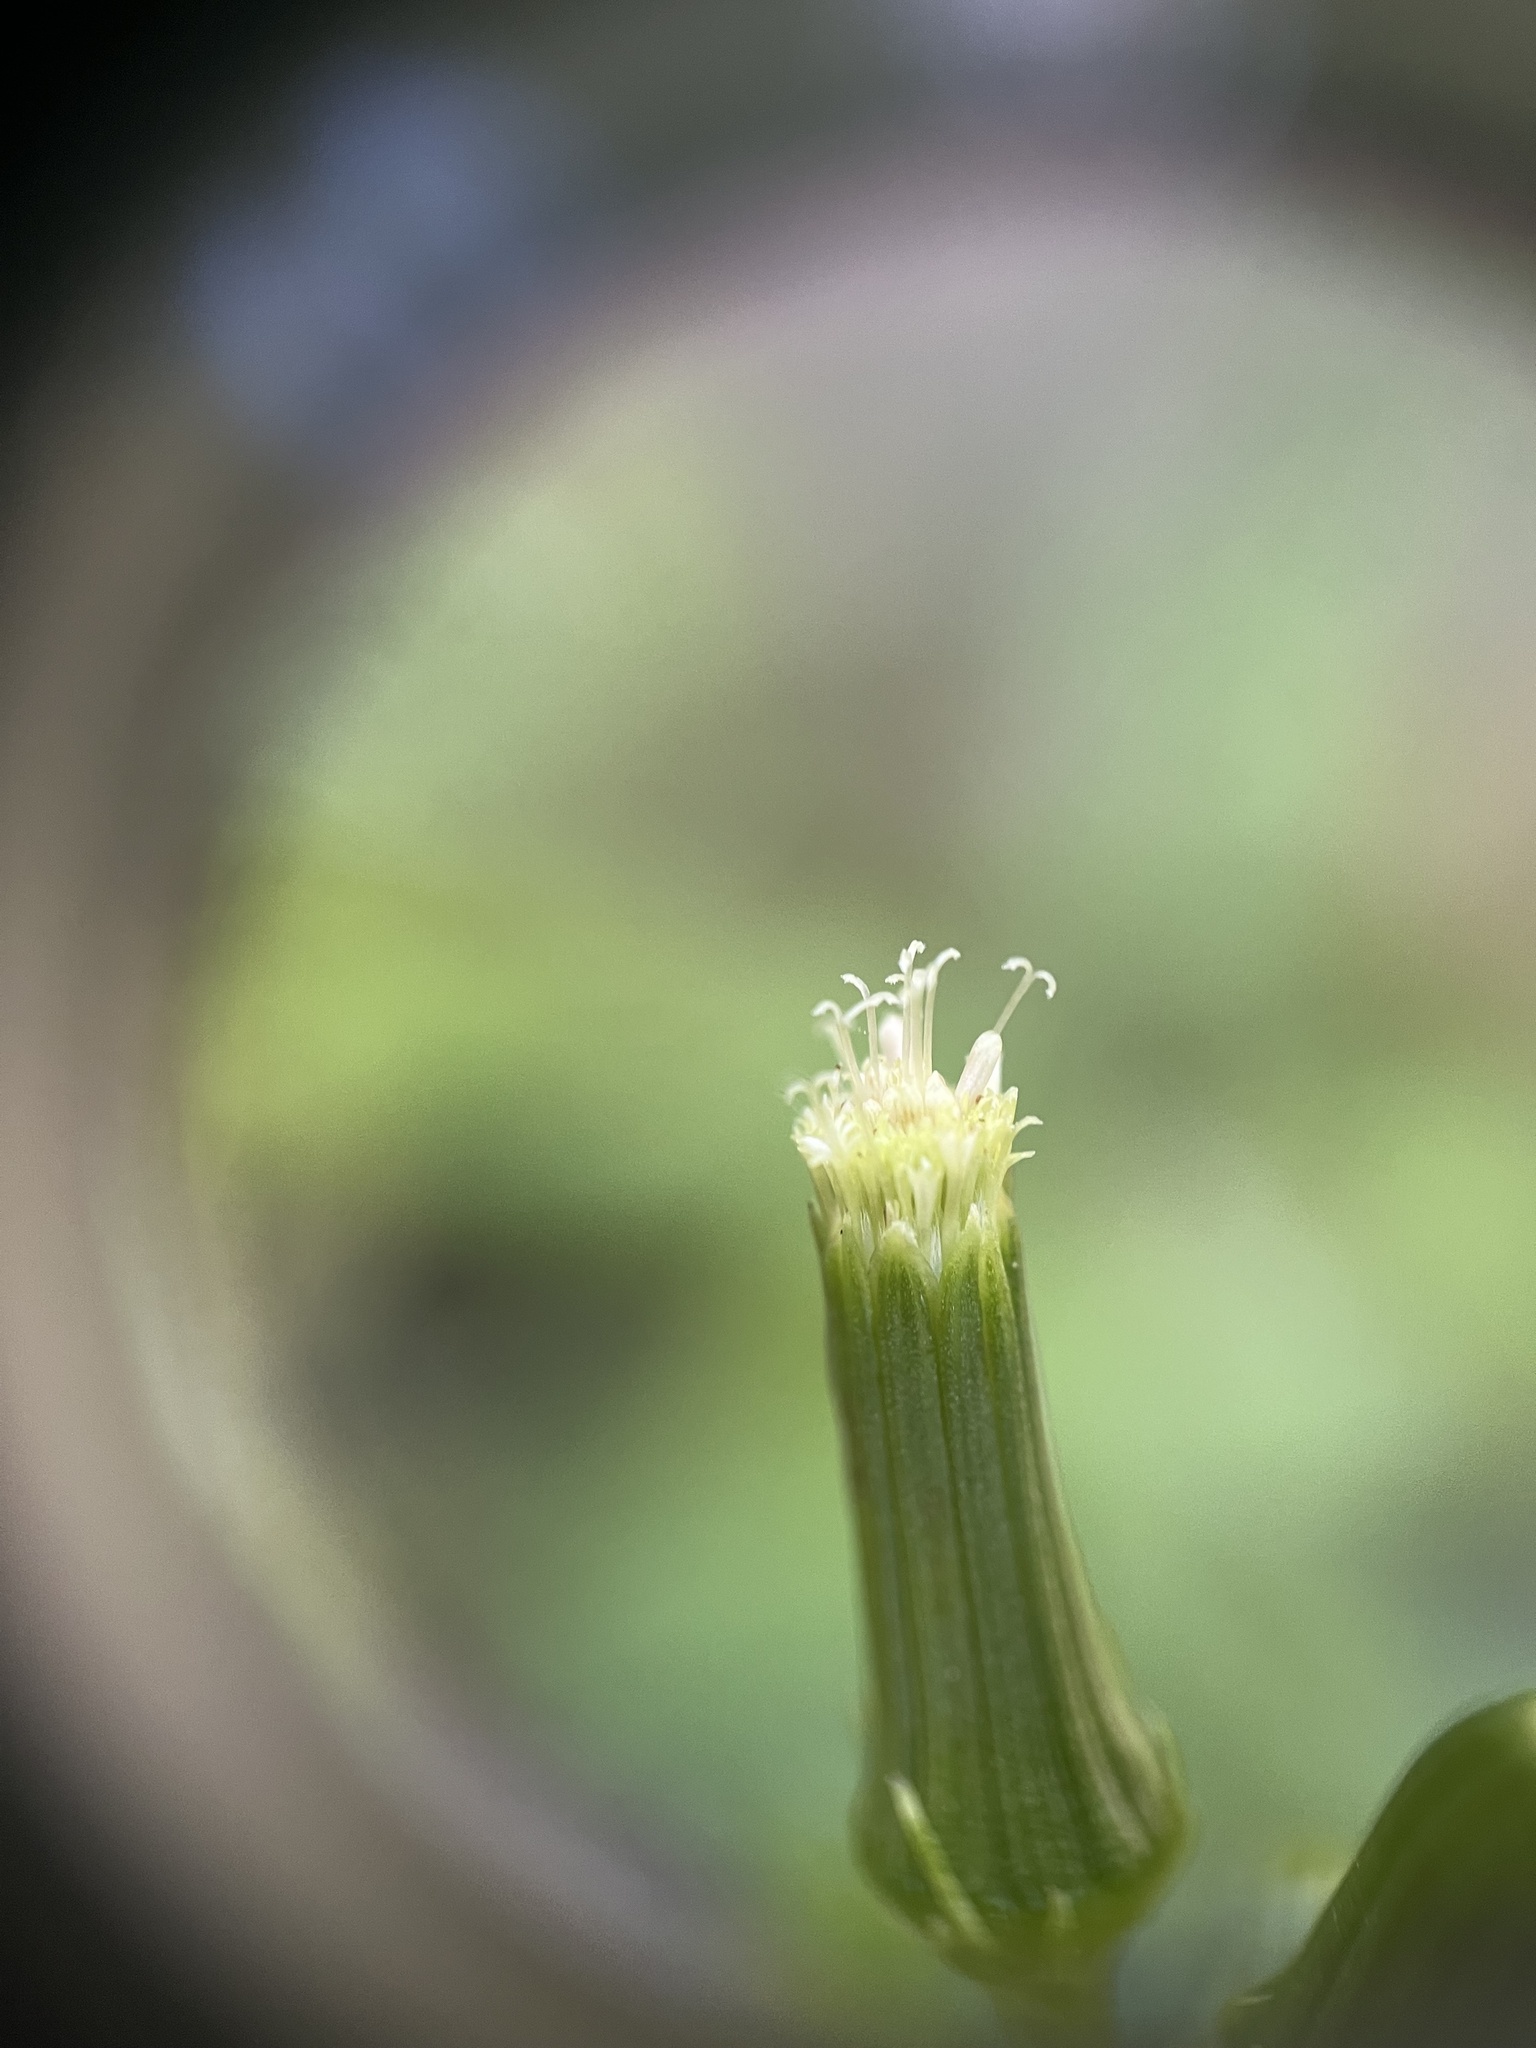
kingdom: Plantae
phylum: Tracheophyta
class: Magnoliopsida
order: Asterales
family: Asteraceae
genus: Erechtites
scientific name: Erechtites hieraciifolius
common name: American burnweed
